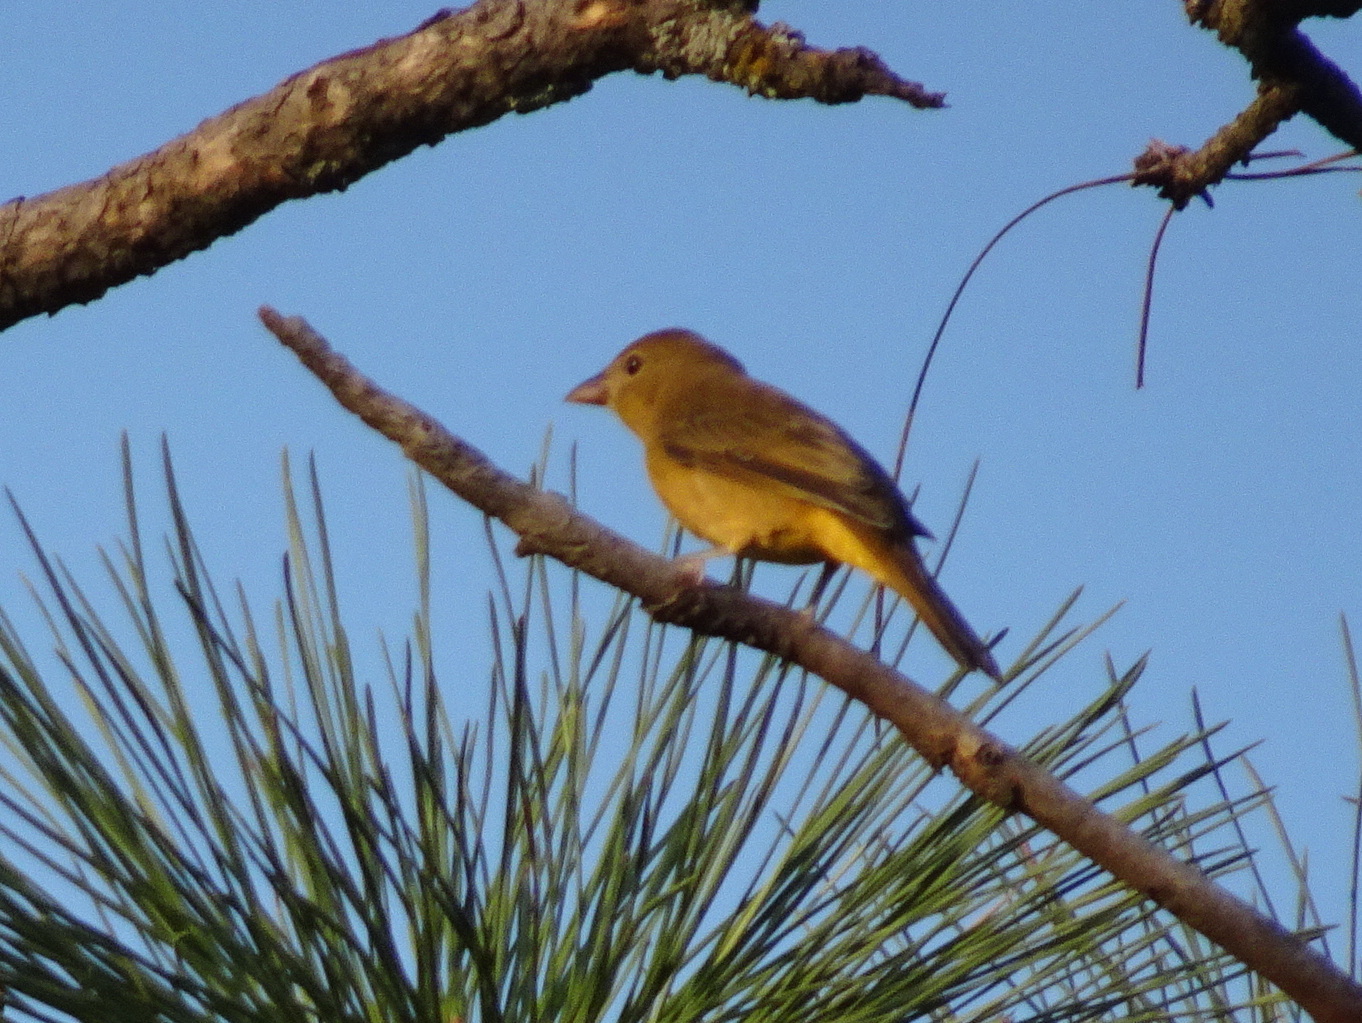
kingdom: Animalia
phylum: Chordata
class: Aves
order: Passeriformes
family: Cardinalidae
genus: Piranga
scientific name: Piranga rubra
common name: Summer tanager
